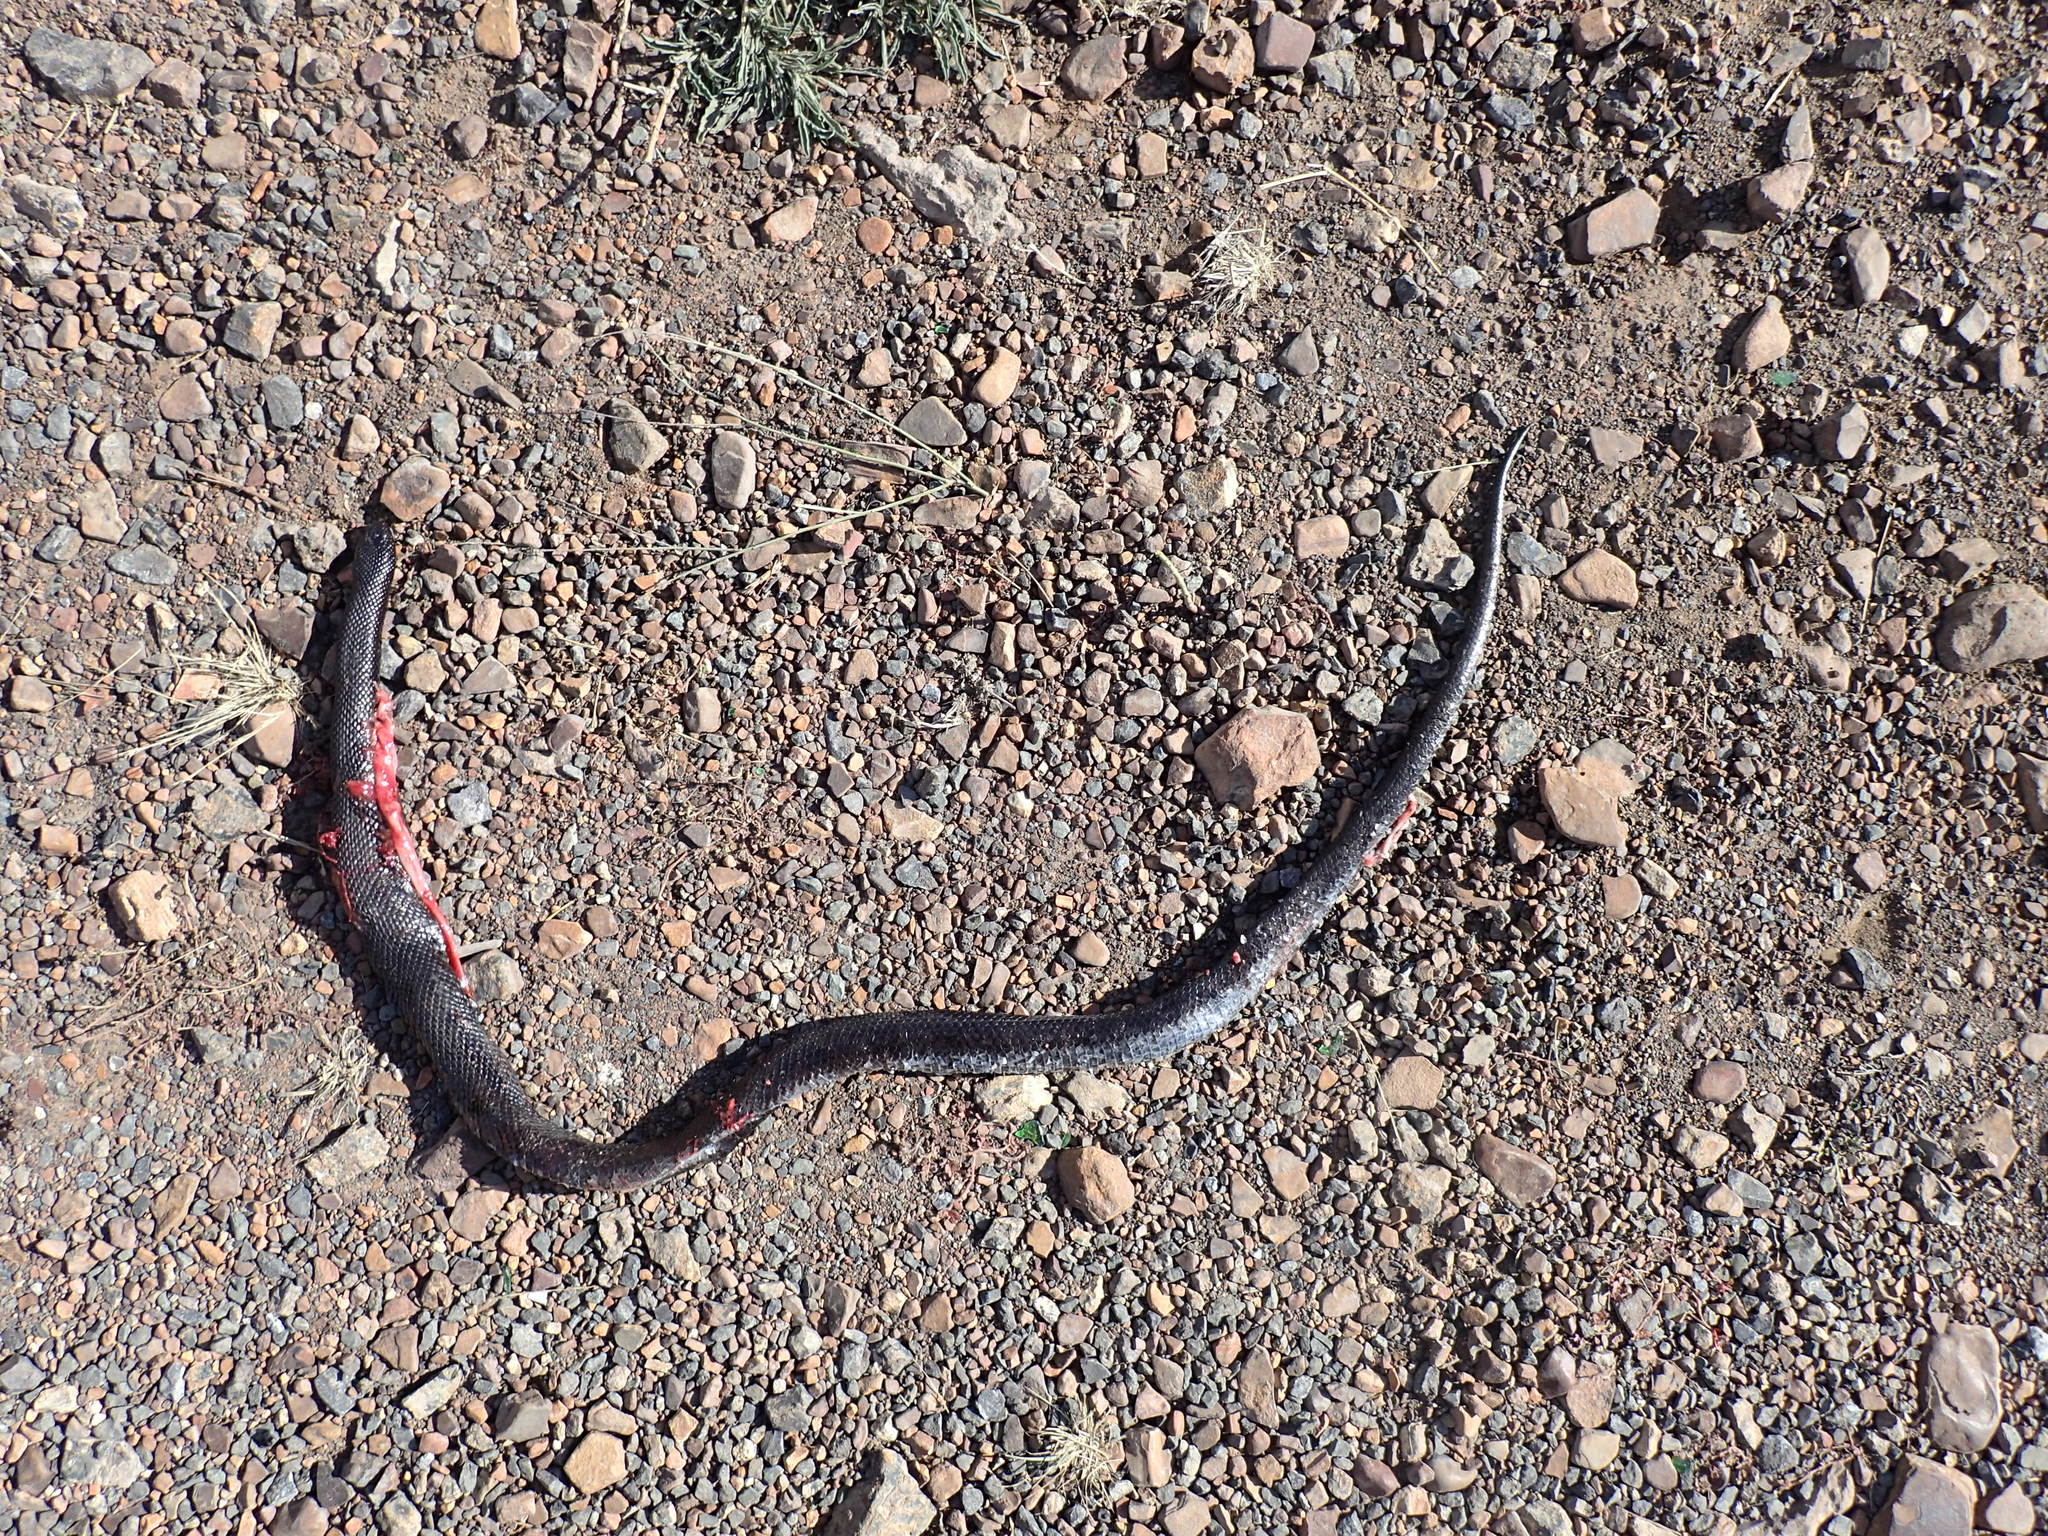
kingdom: Animalia
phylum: Chordata
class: Squamata
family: Pseudaspididae
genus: Pseudaspis
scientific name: Pseudaspis cana
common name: Mole snake
